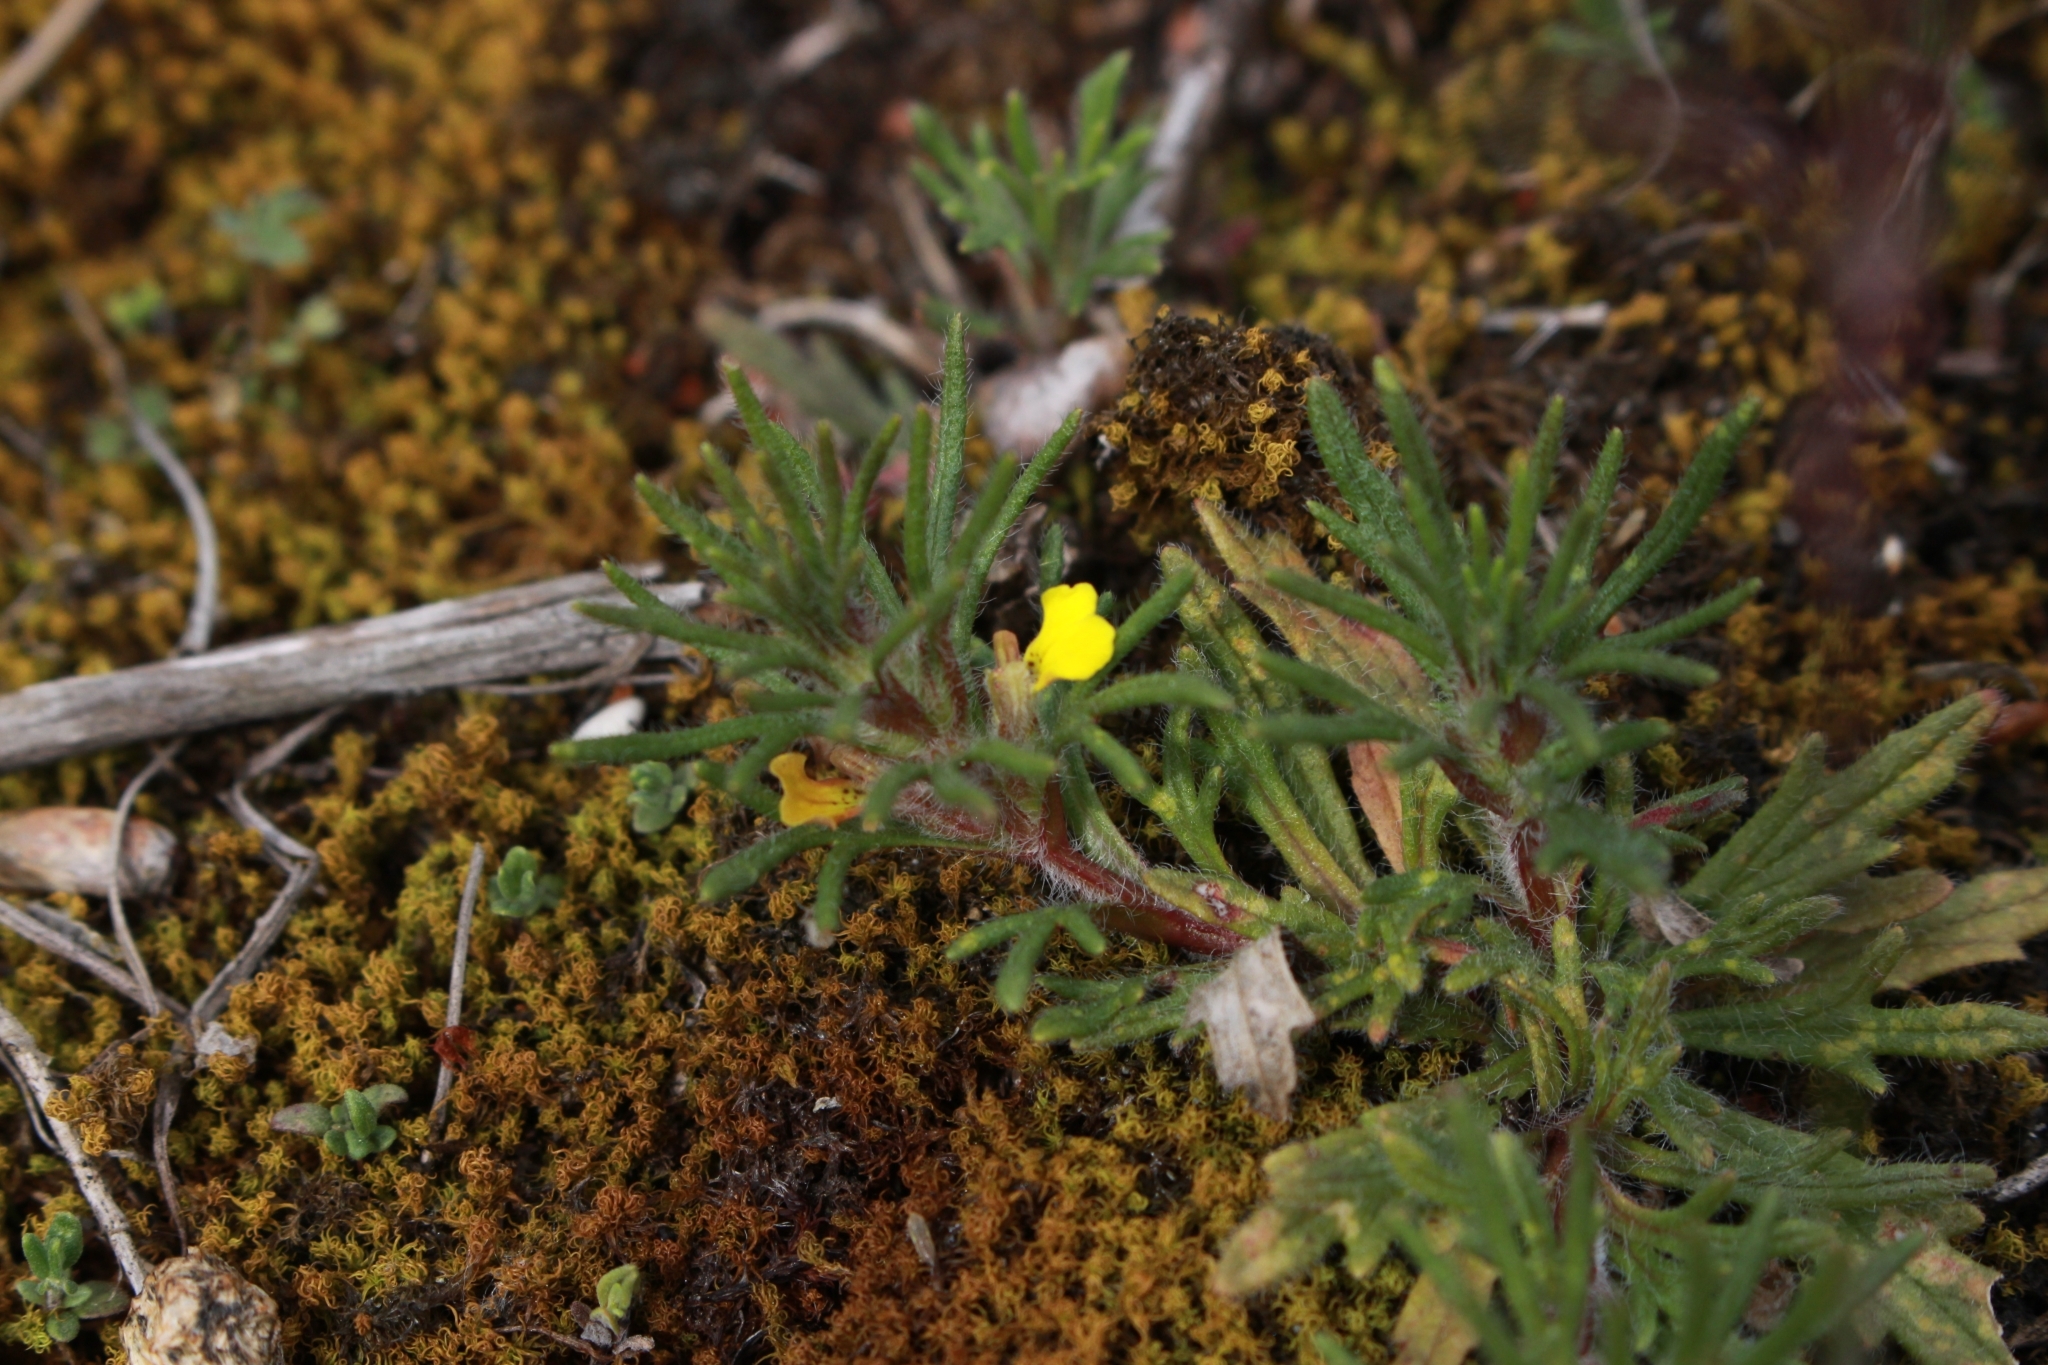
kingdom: Plantae
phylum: Tracheophyta
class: Magnoliopsida
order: Lamiales
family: Lamiaceae
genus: Ajuga
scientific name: Ajuga chamaepitys
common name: Ground-pine
